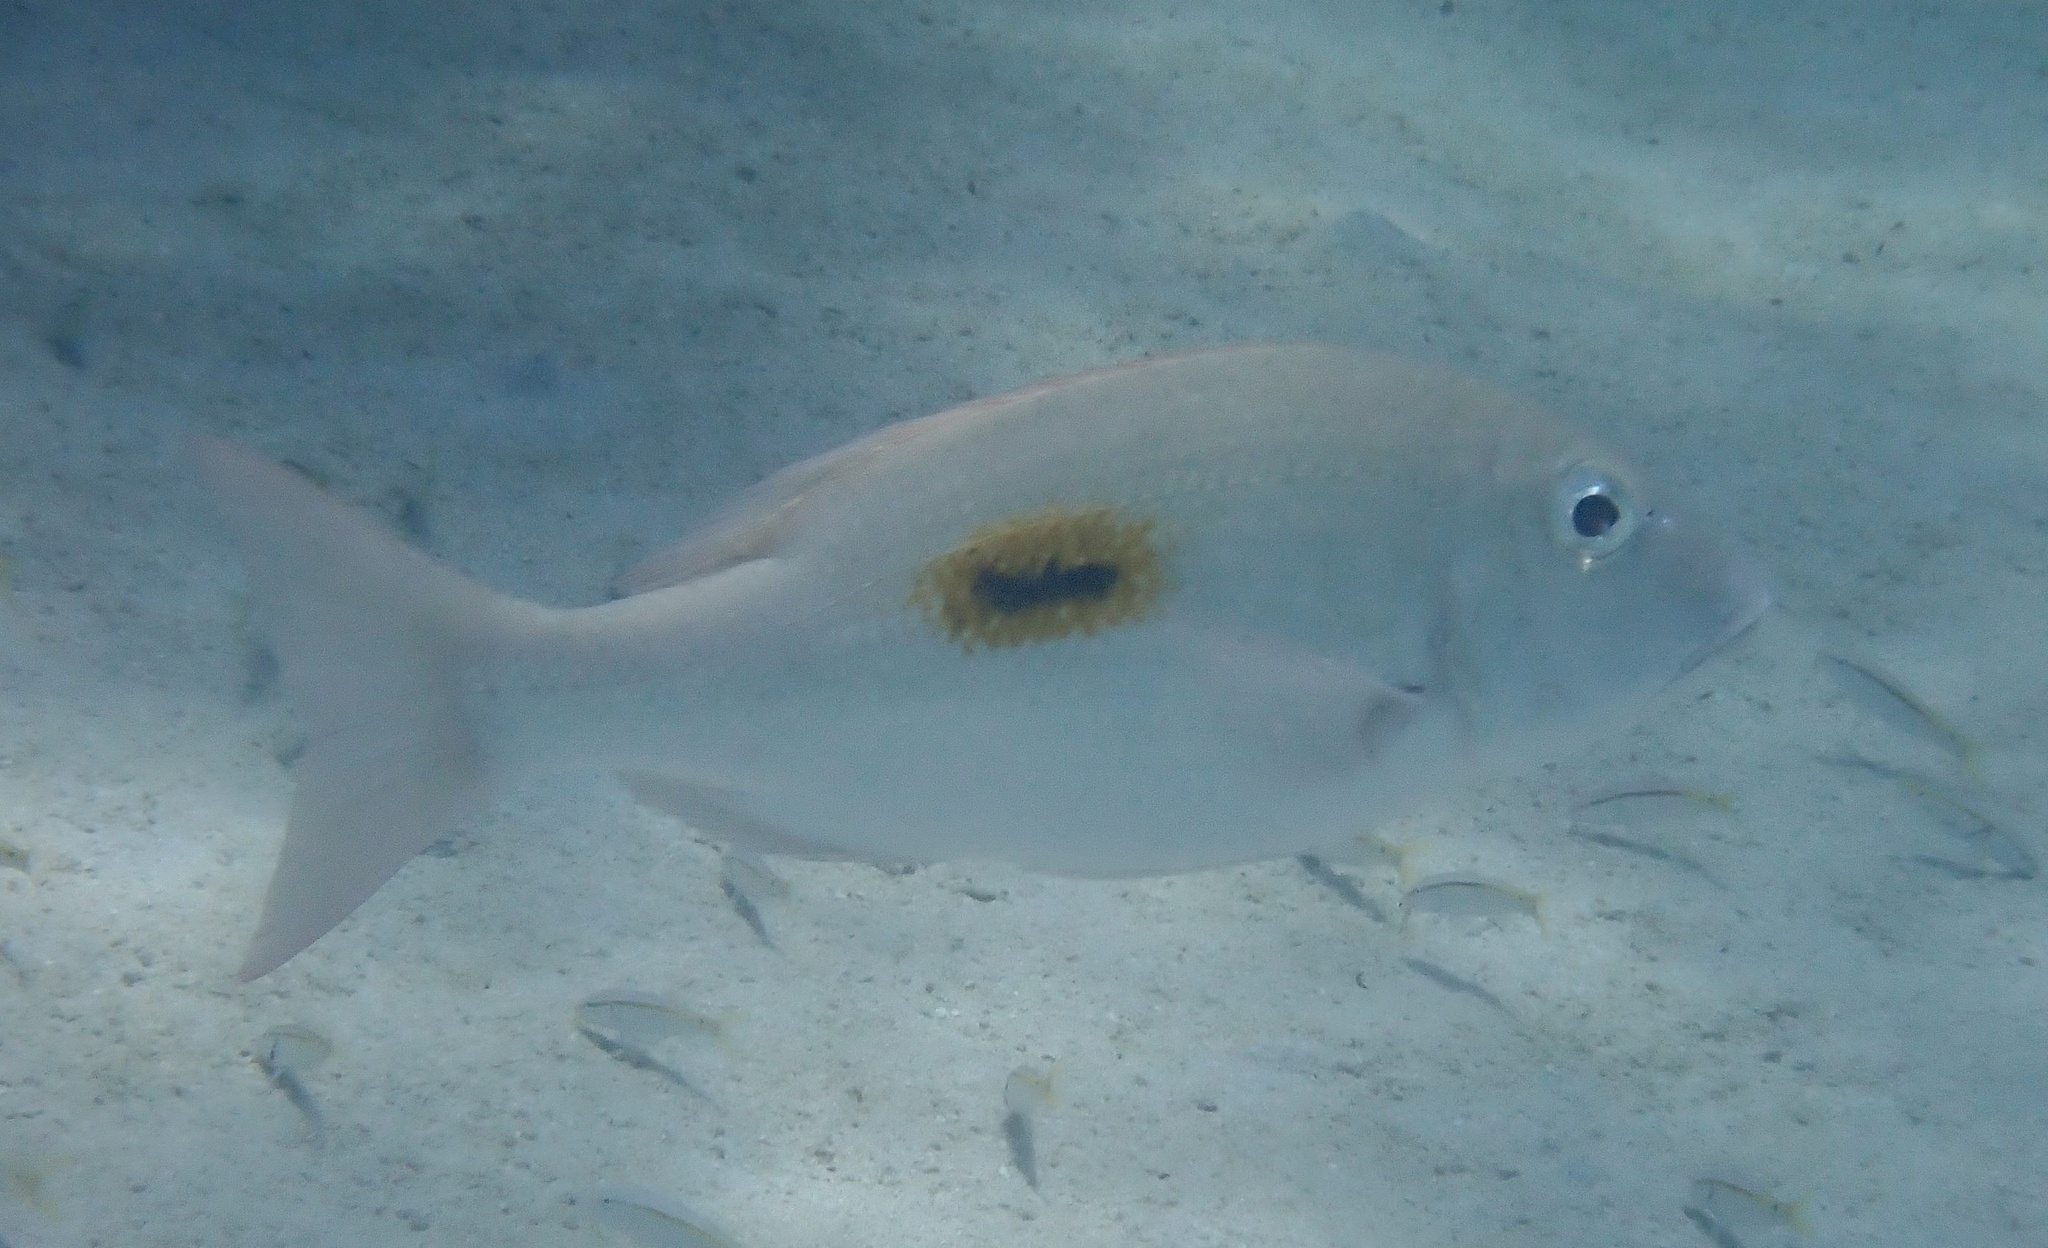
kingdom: Animalia
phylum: Chordata
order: Perciformes
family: Lethrinidae
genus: Lethrinus
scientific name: Lethrinus harak
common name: Blackspot emperor
